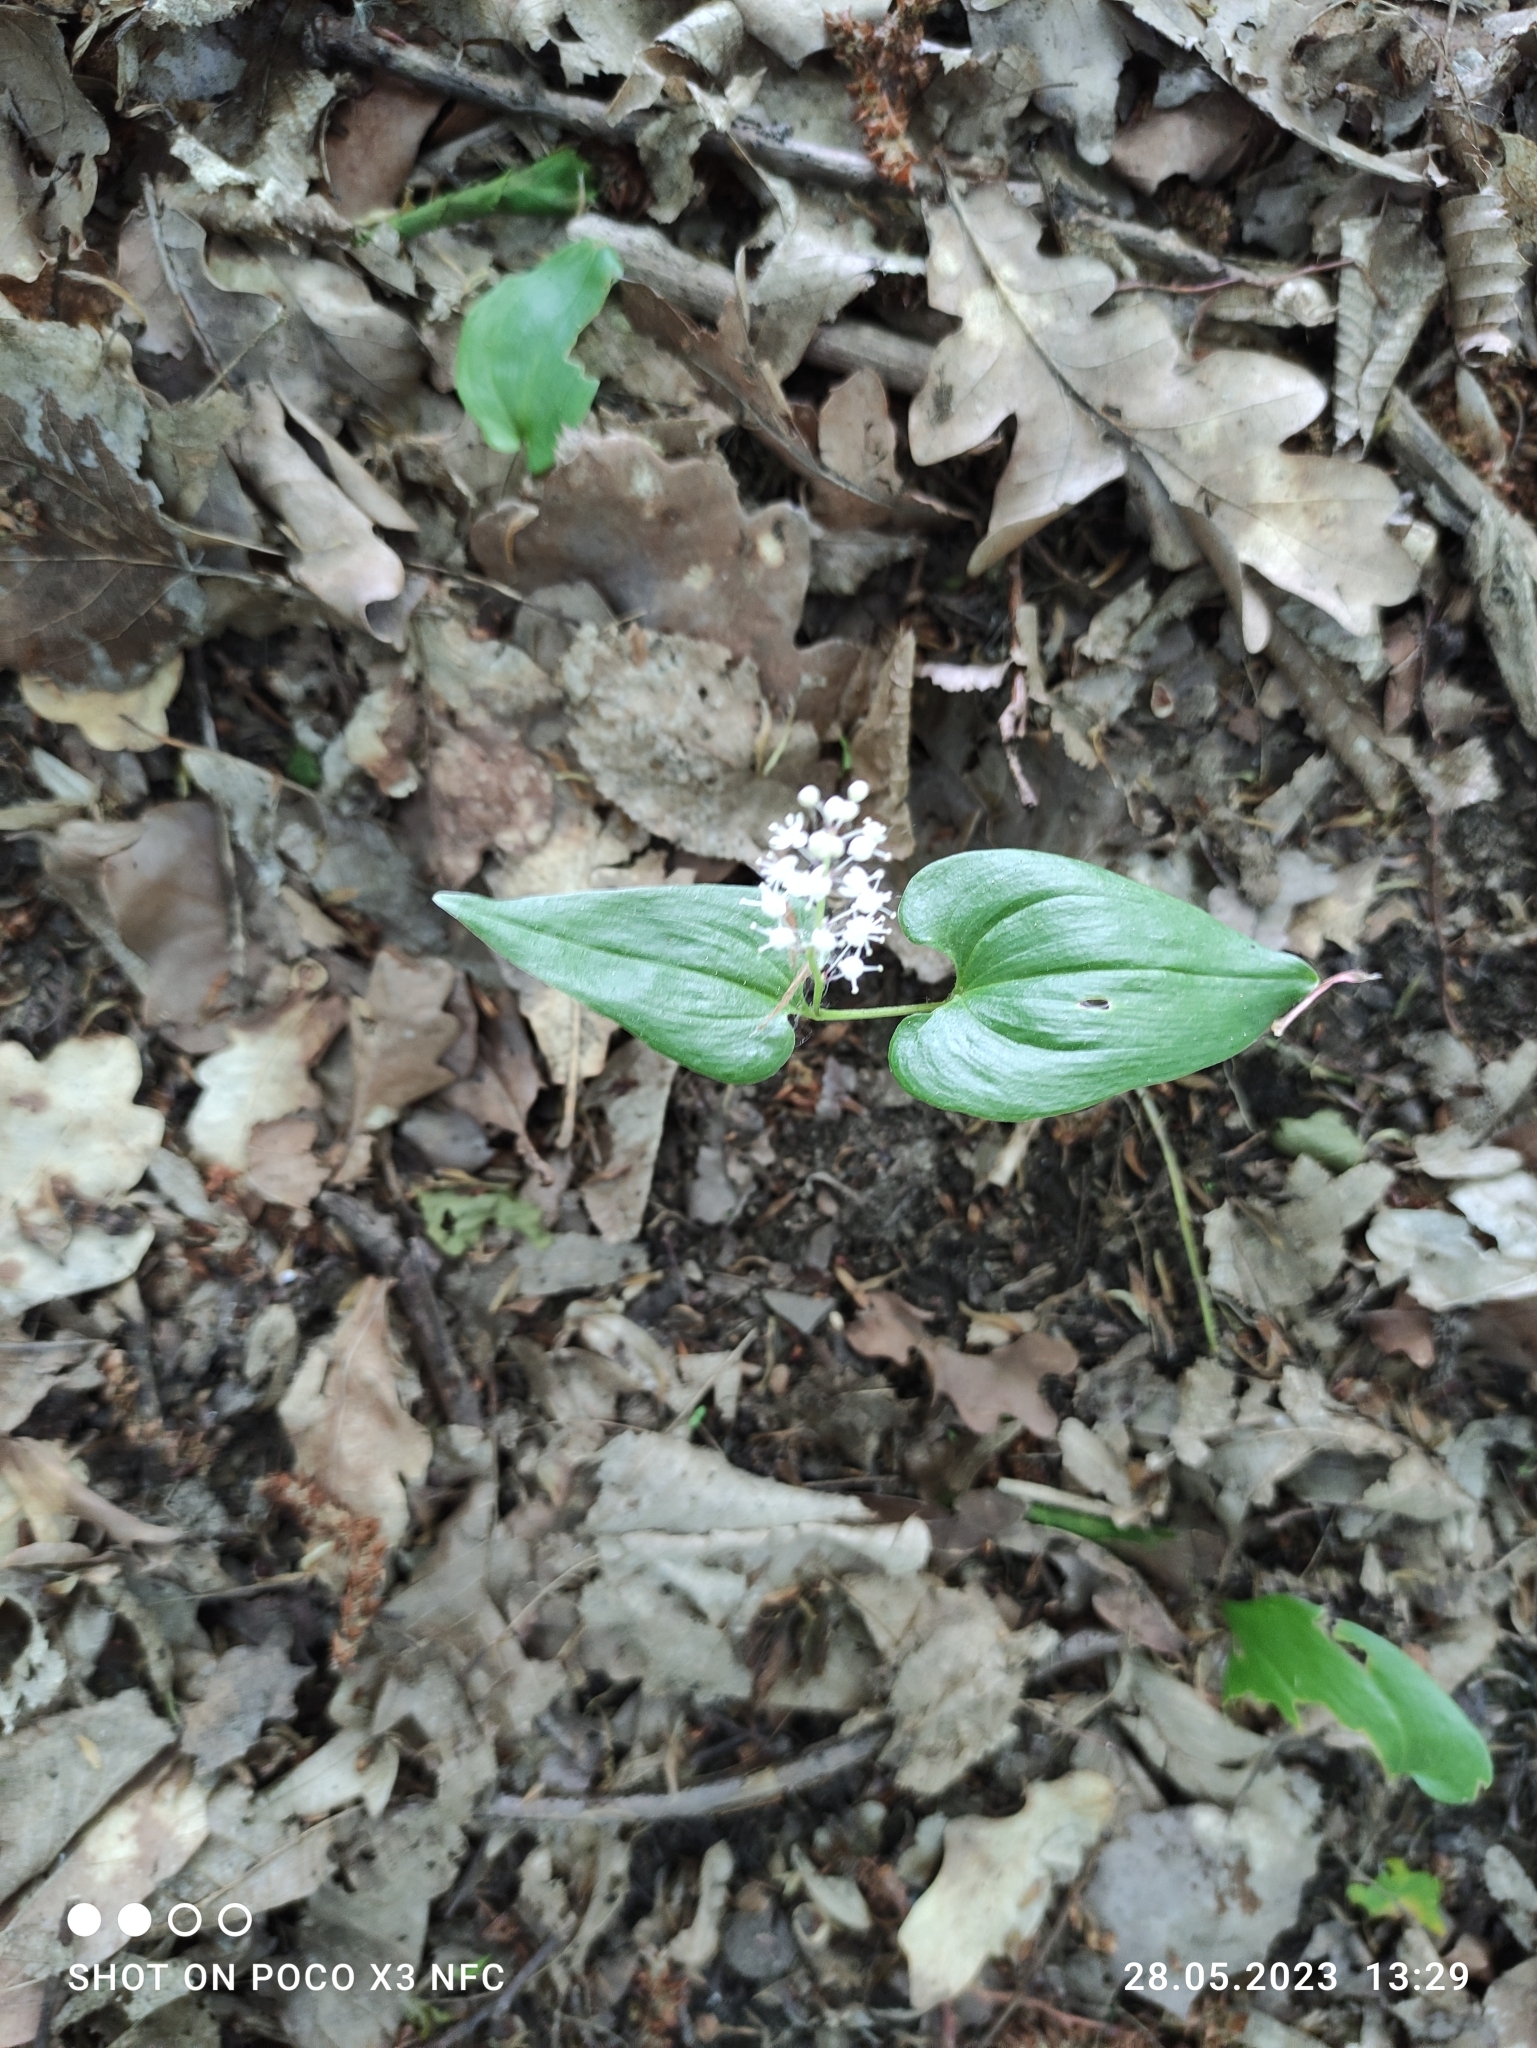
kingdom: Plantae
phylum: Tracheophyta
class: Liliopsida
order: Asparagales
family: Asparagaceae
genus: Maianthemum
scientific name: Maianthemum bifolium
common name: May lily
